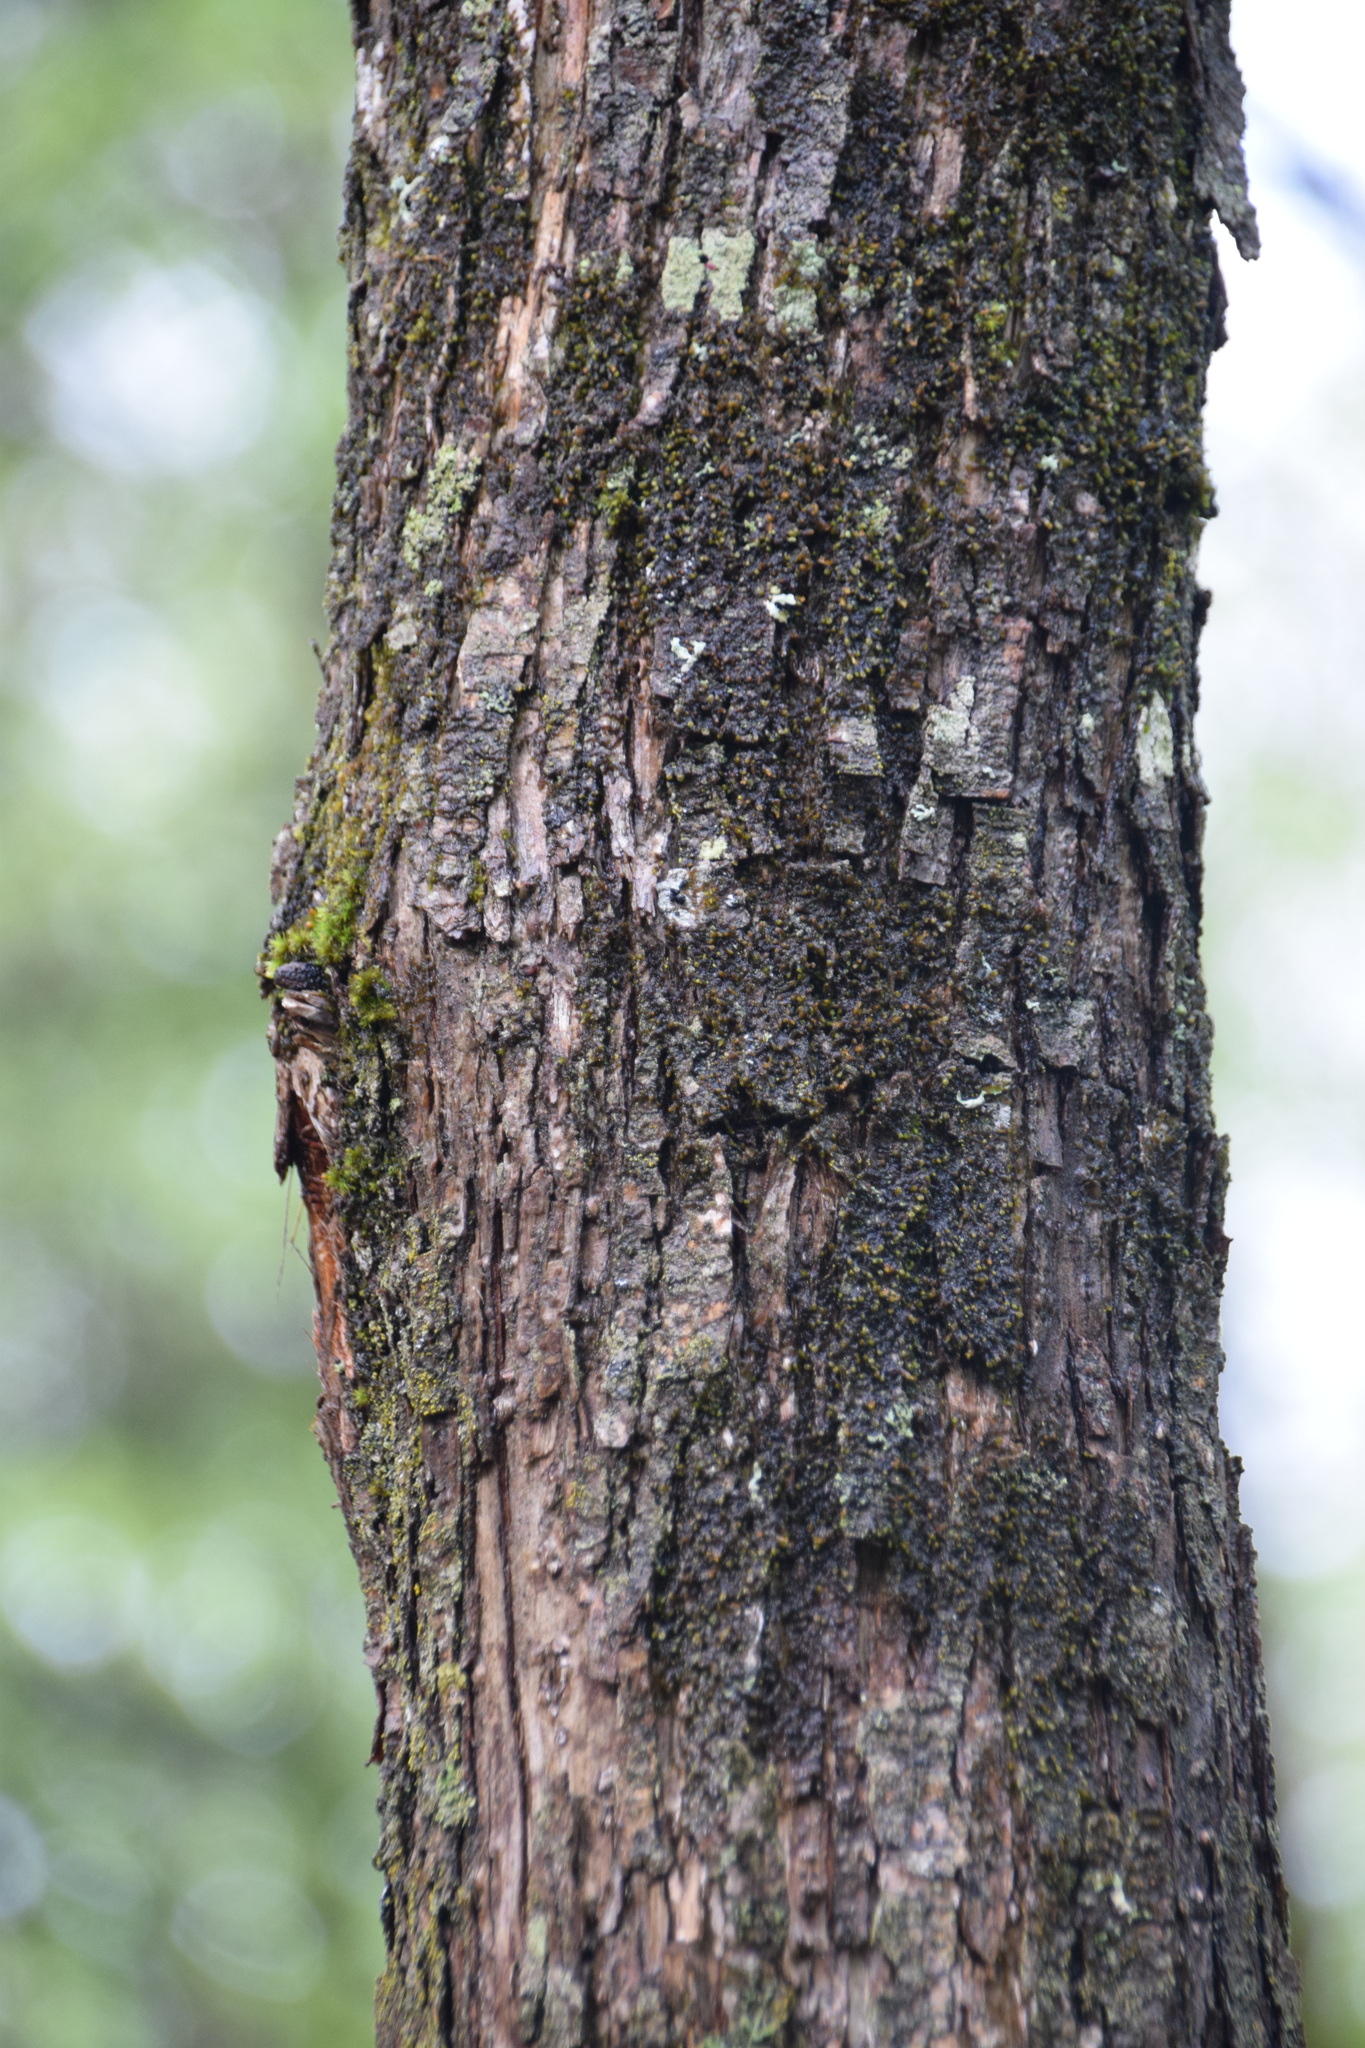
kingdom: Plantae
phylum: Tracheophyta
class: Magnoliopsida
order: Fagales
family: Betulaceae
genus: Ostrya
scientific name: Ostrya virginiana
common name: Ironwood
